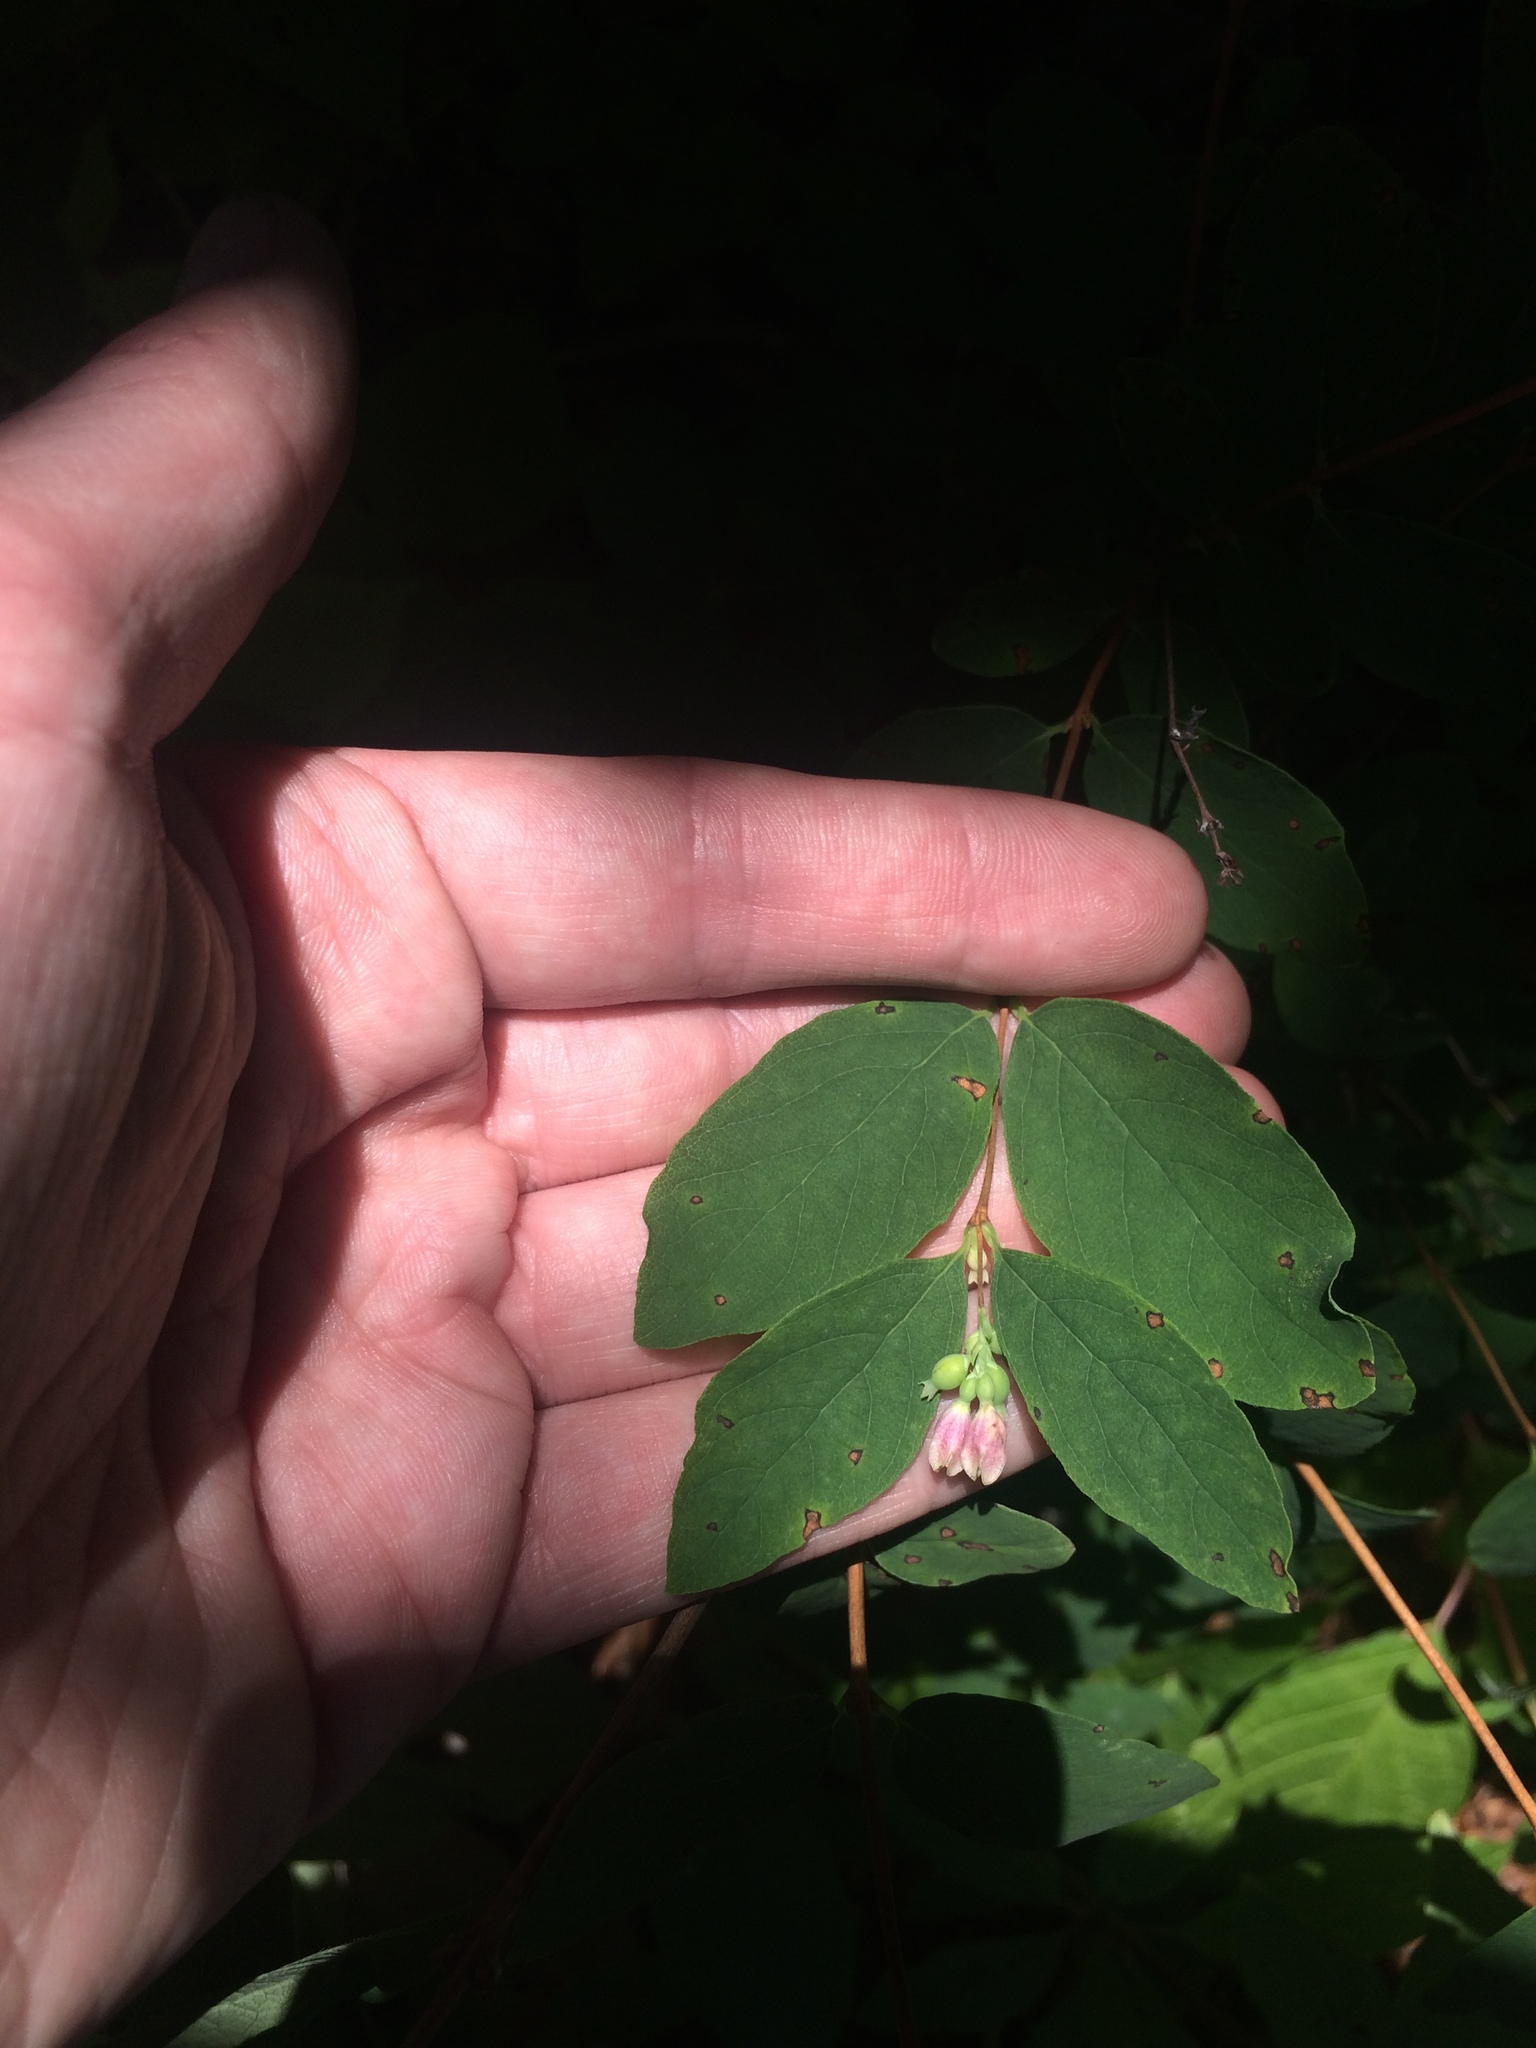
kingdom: Plantae
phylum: Tracheophyta
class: Magnoliopsida
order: Dipsacales
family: Caprifoliaceae
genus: Symphoricarpos
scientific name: Symphoricarpos albus
